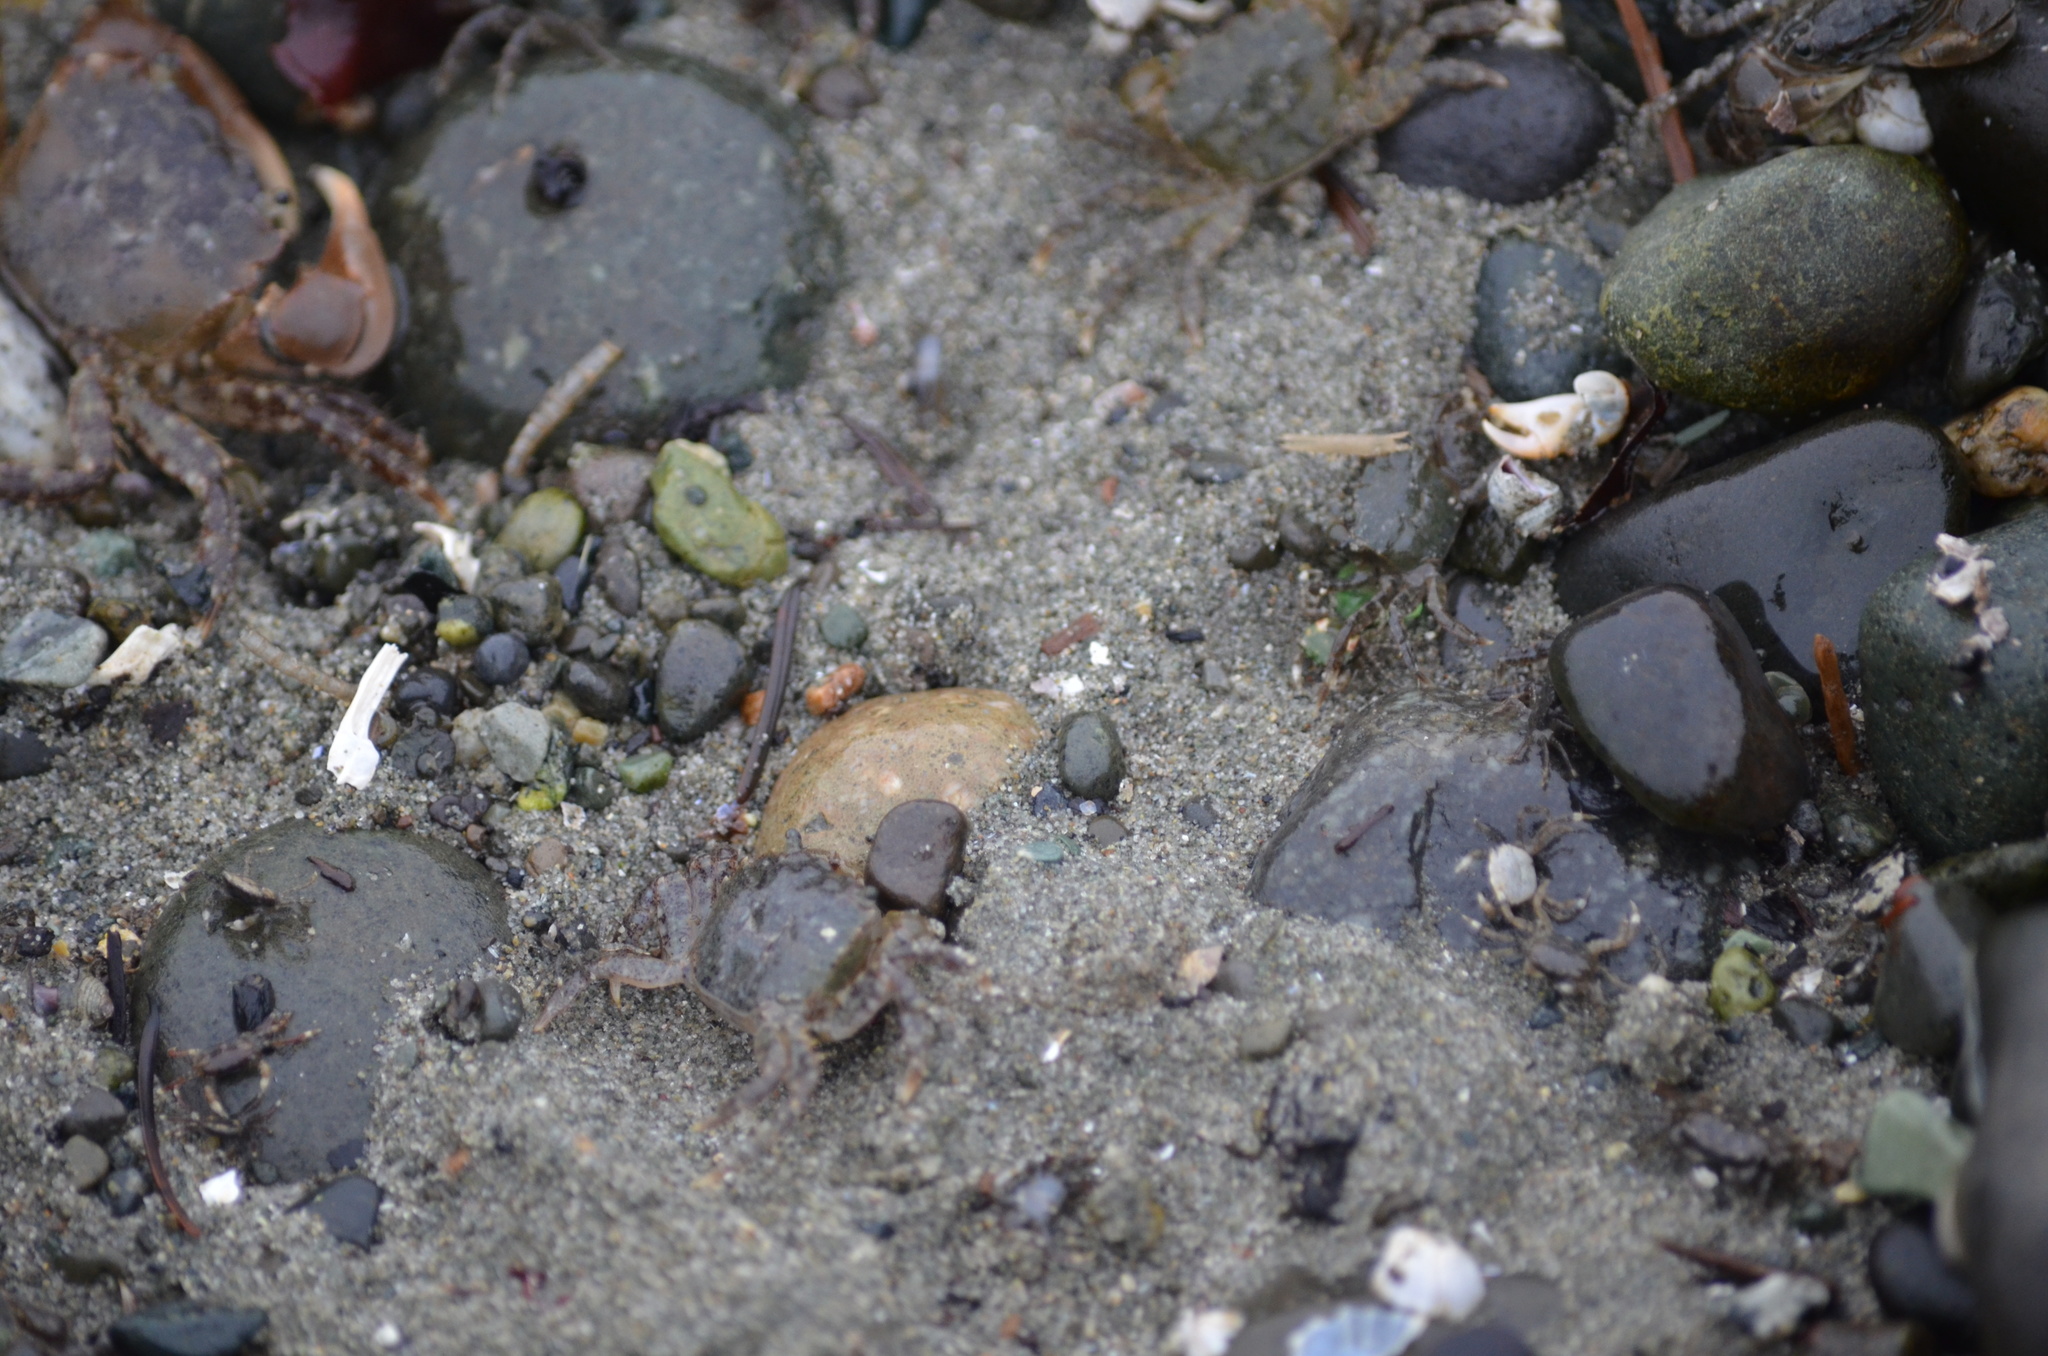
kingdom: Animalia
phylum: Arthropoda
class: Malacostraca
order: Decapoda
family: Varunidae
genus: Hemigrapsus
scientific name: Hemigrapsus oregonensis
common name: Yellow shore crab
